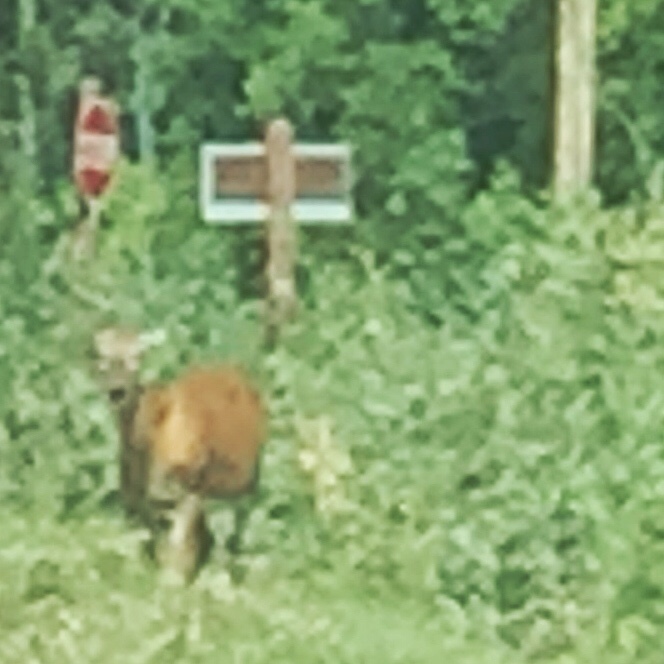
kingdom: Animalia
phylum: Chordata
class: Mammalia
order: Artiodactyla
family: Cervidae
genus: Odocoileus
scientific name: Odocoileus virginianus
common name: White-tailed deer
